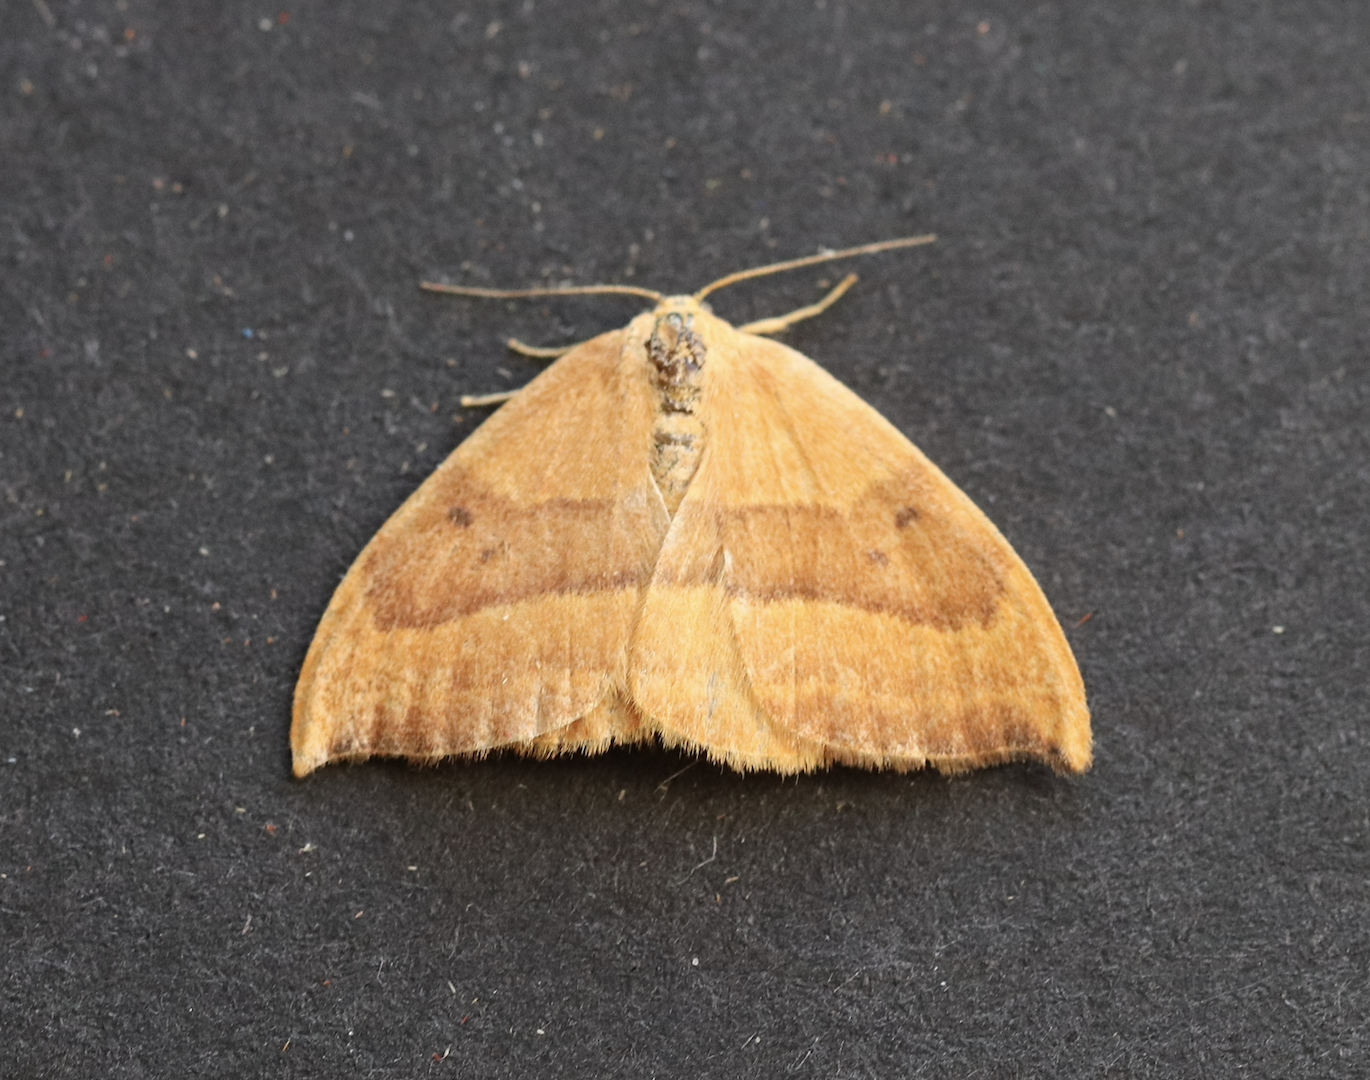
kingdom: Animalia
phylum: Arthropoda
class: Insecta
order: Lepidoptera
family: Drepanidae
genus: Watsonalla
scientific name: Watsonalla cultraria
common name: Barred hook-tip
